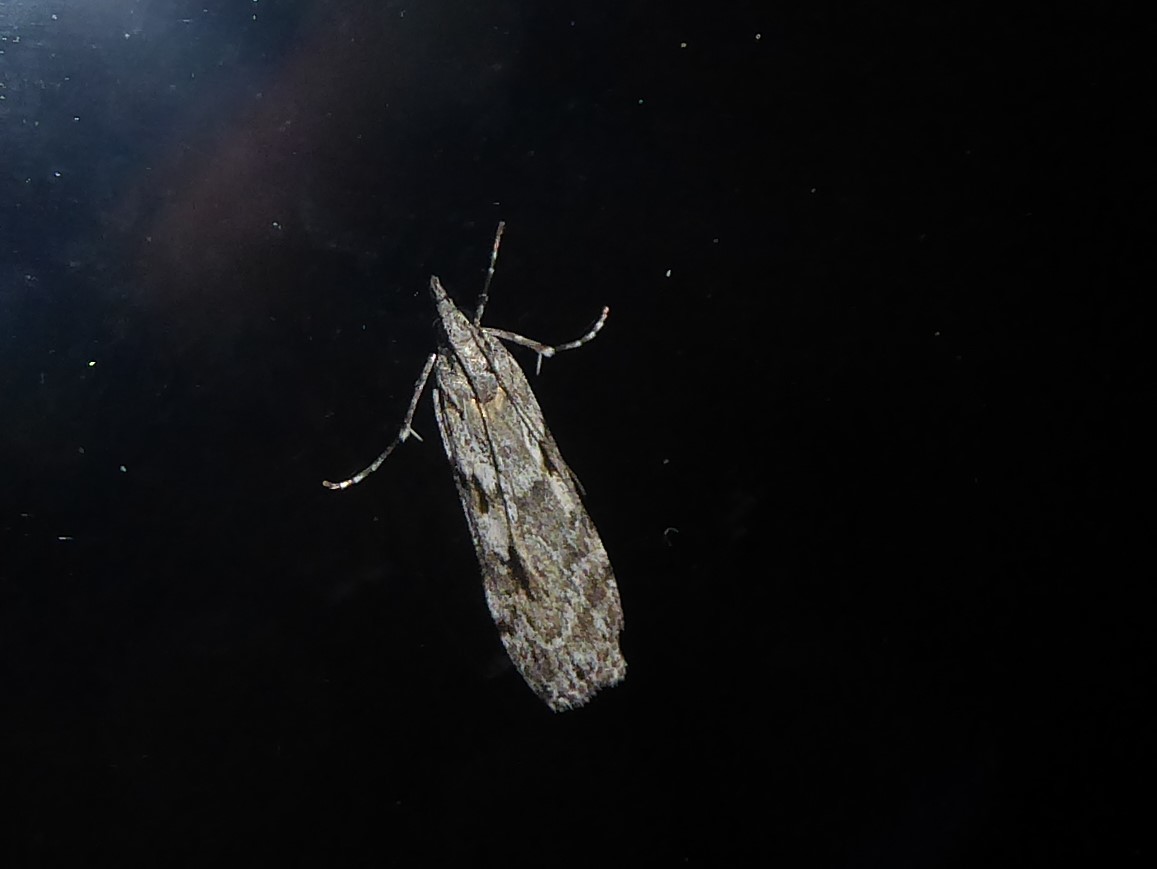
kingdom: Animalia
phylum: Arthropoda
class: Insecta
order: Lepidoptera
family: Crambidae
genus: Scoparia
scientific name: Scoparia halopis
